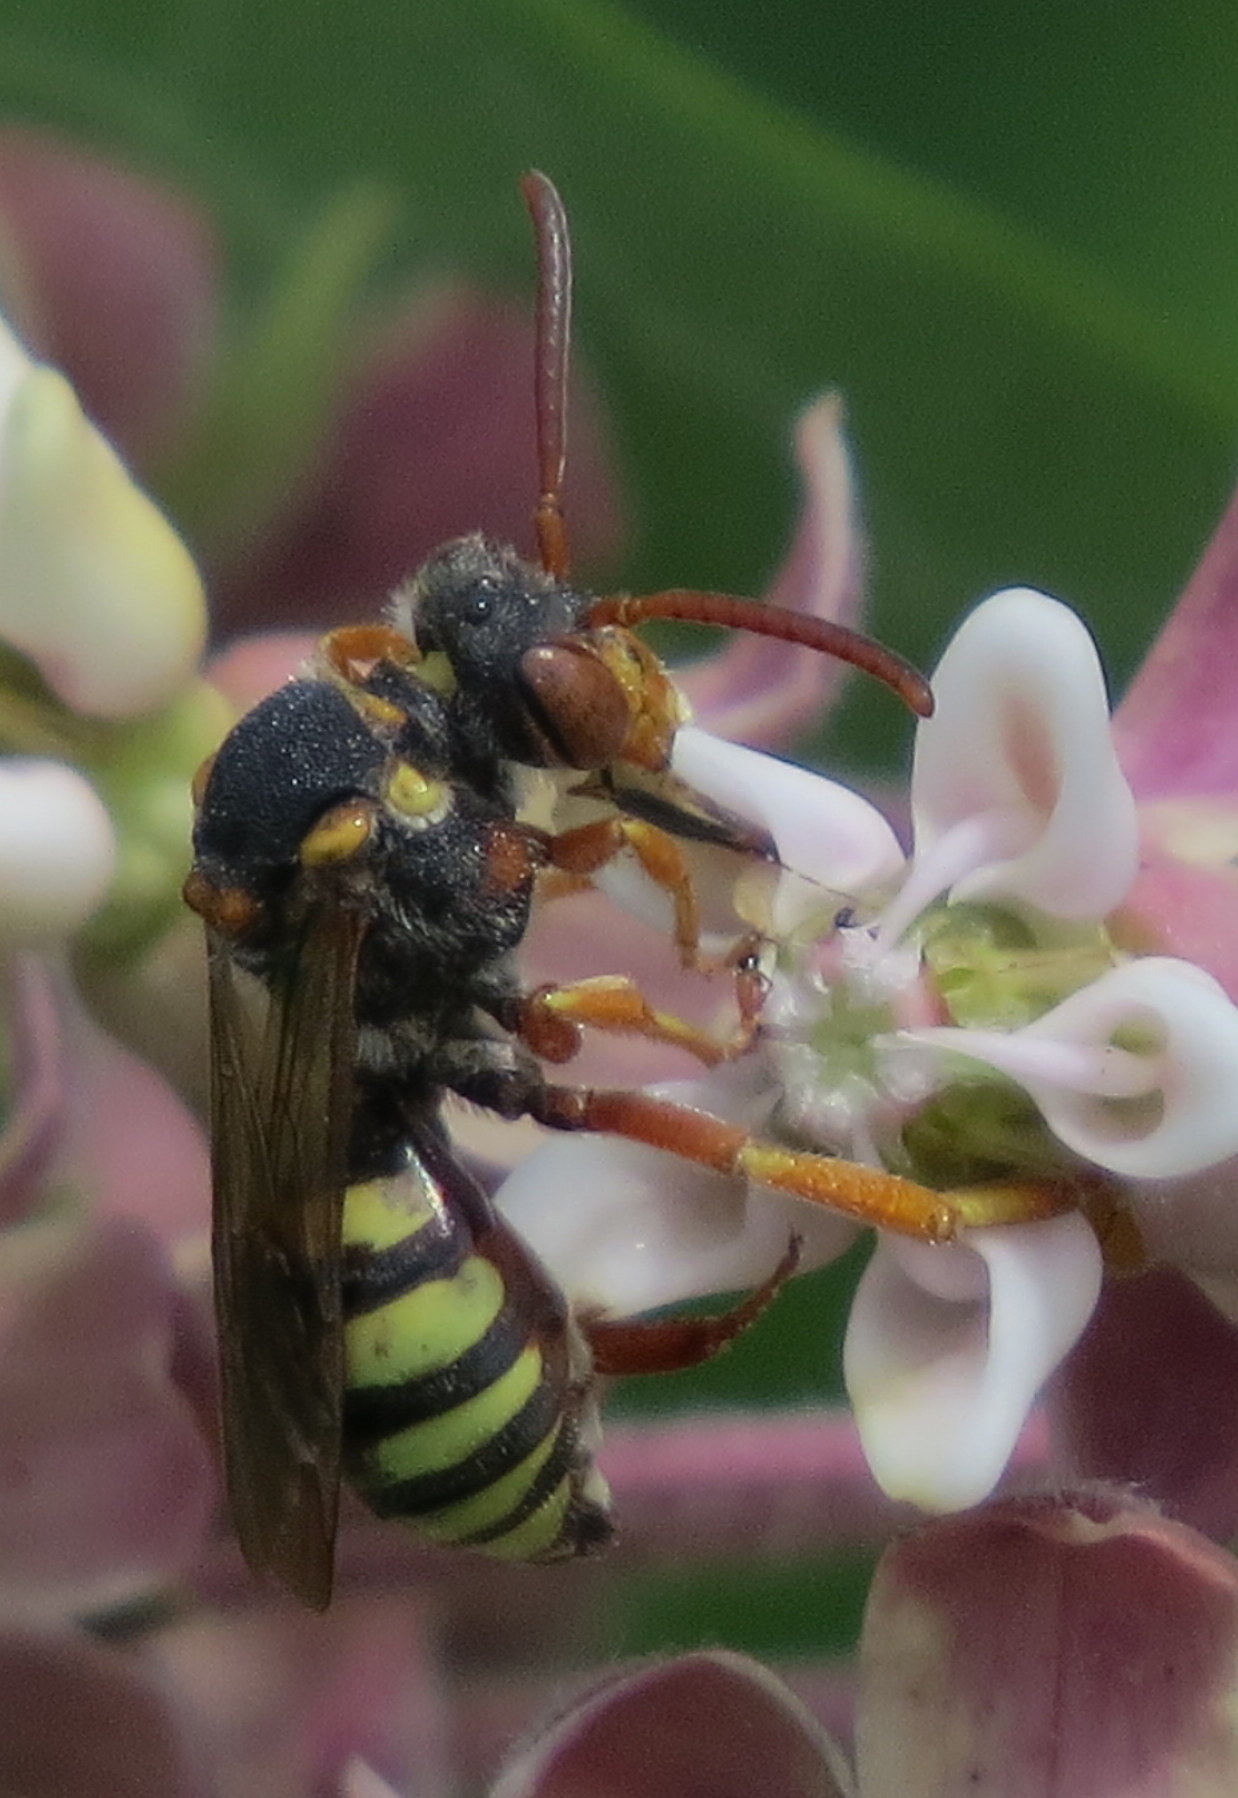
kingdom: Animalia
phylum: Arthropoda
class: Insecta
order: Hymenoptera
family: Apidae
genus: Nomada
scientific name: Nomada
